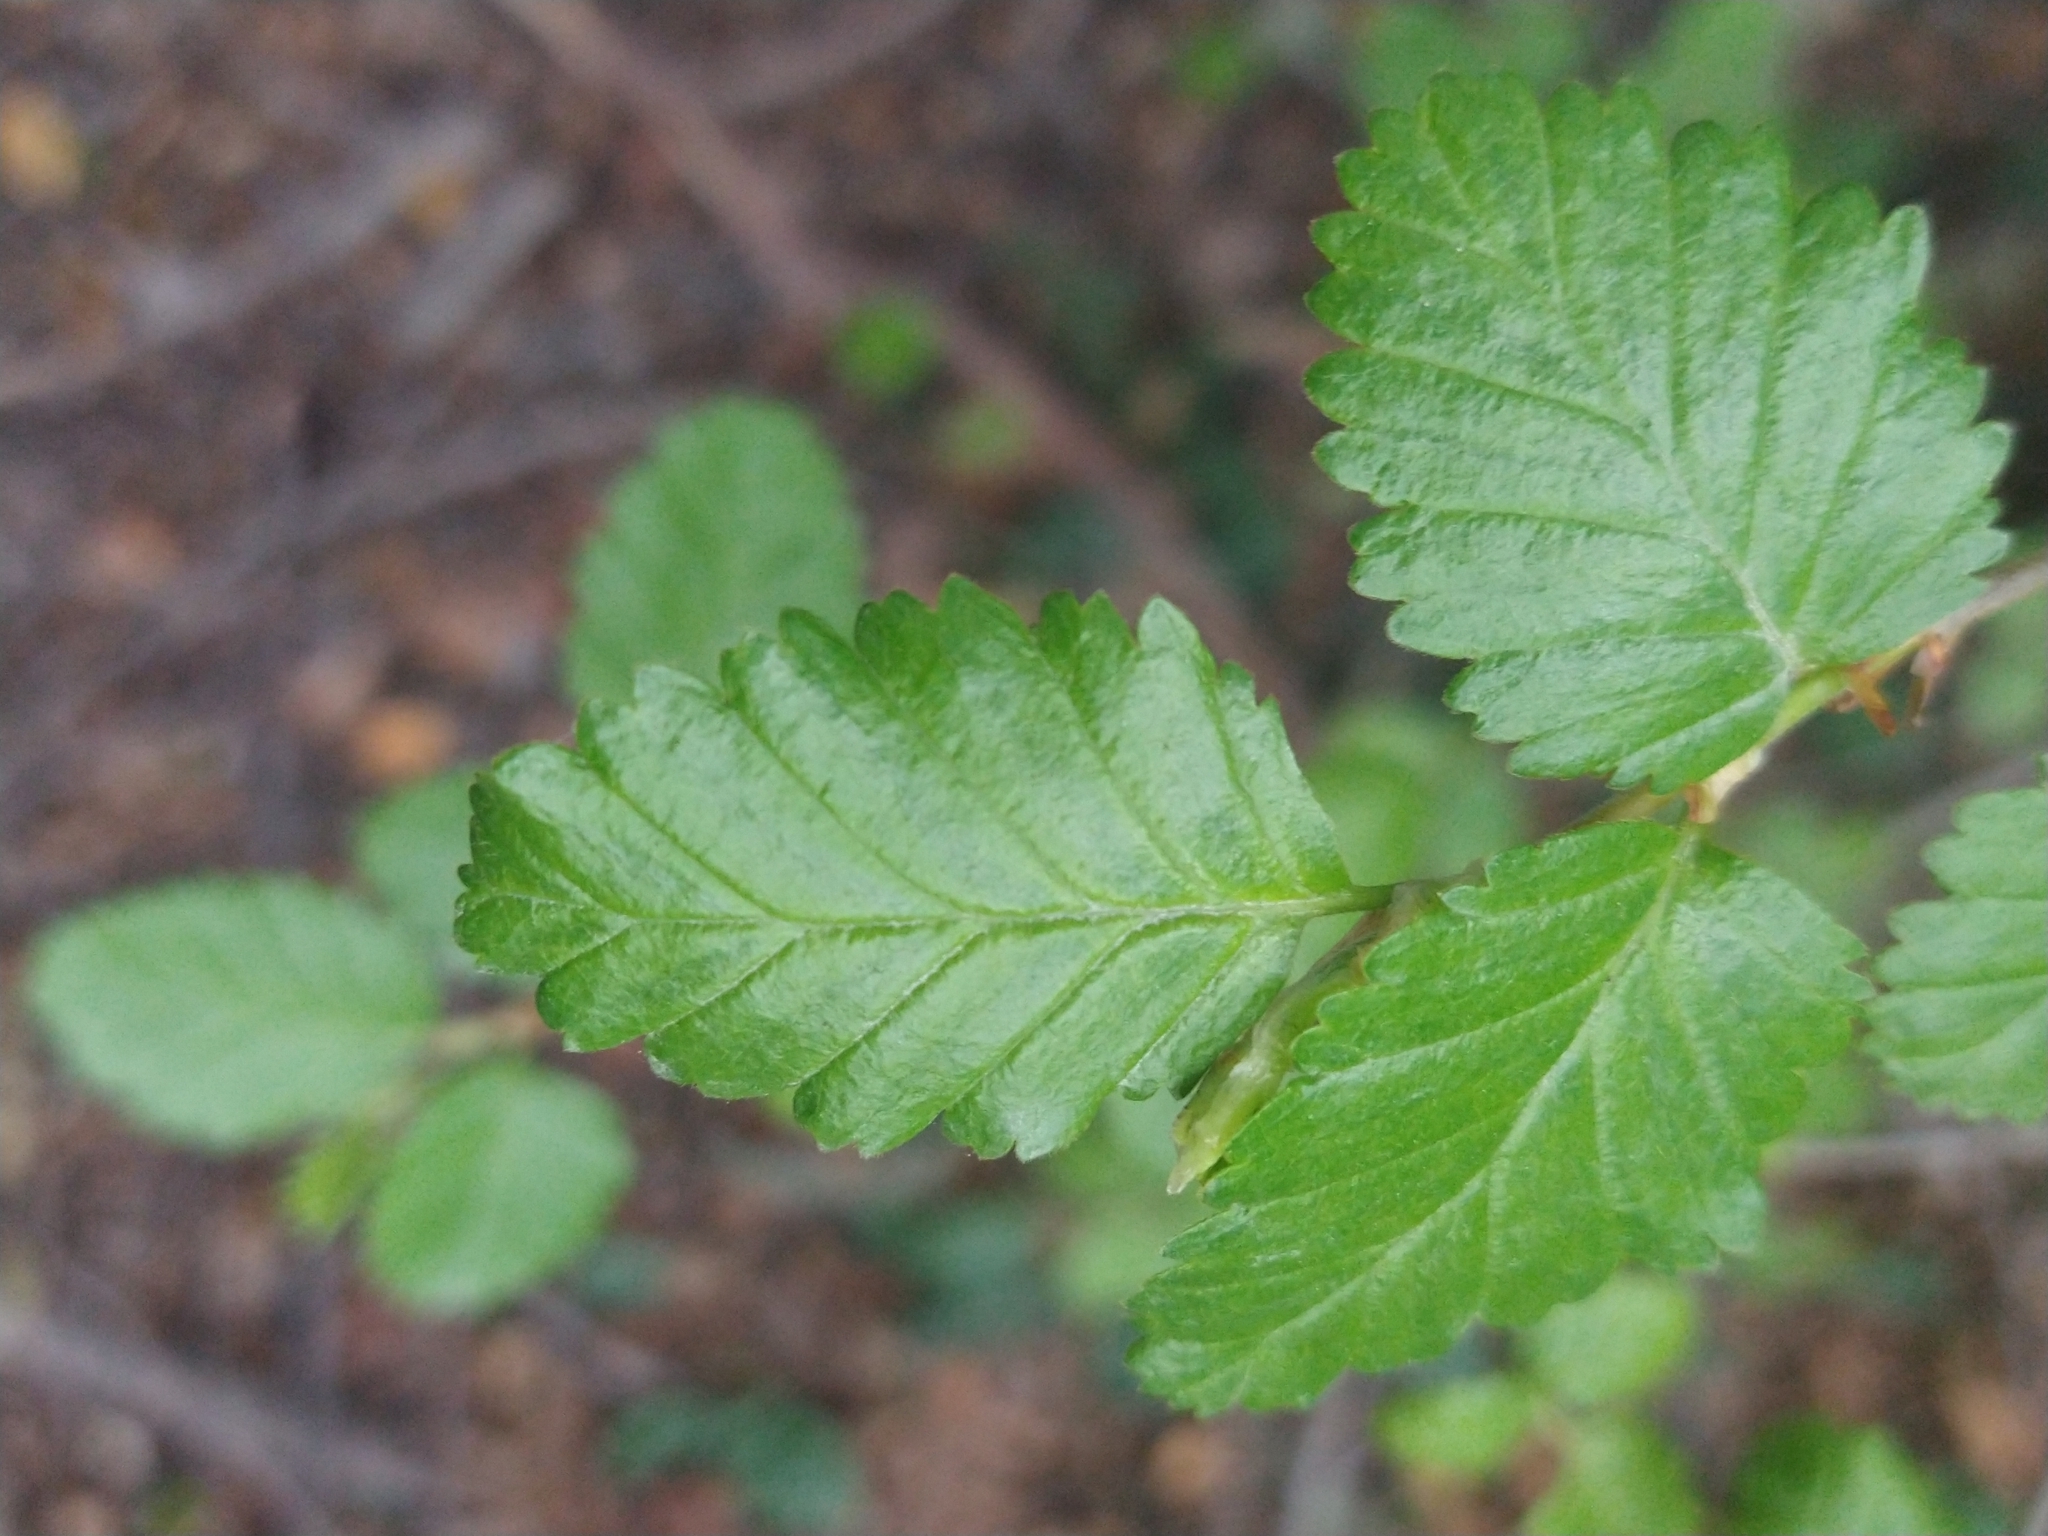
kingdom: Plantae
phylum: Tracheophyta
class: Magnoliopsida
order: Fagales
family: Nothofagaceae
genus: Nothofagus
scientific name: Nothofagus pumilio
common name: Lenga beech
